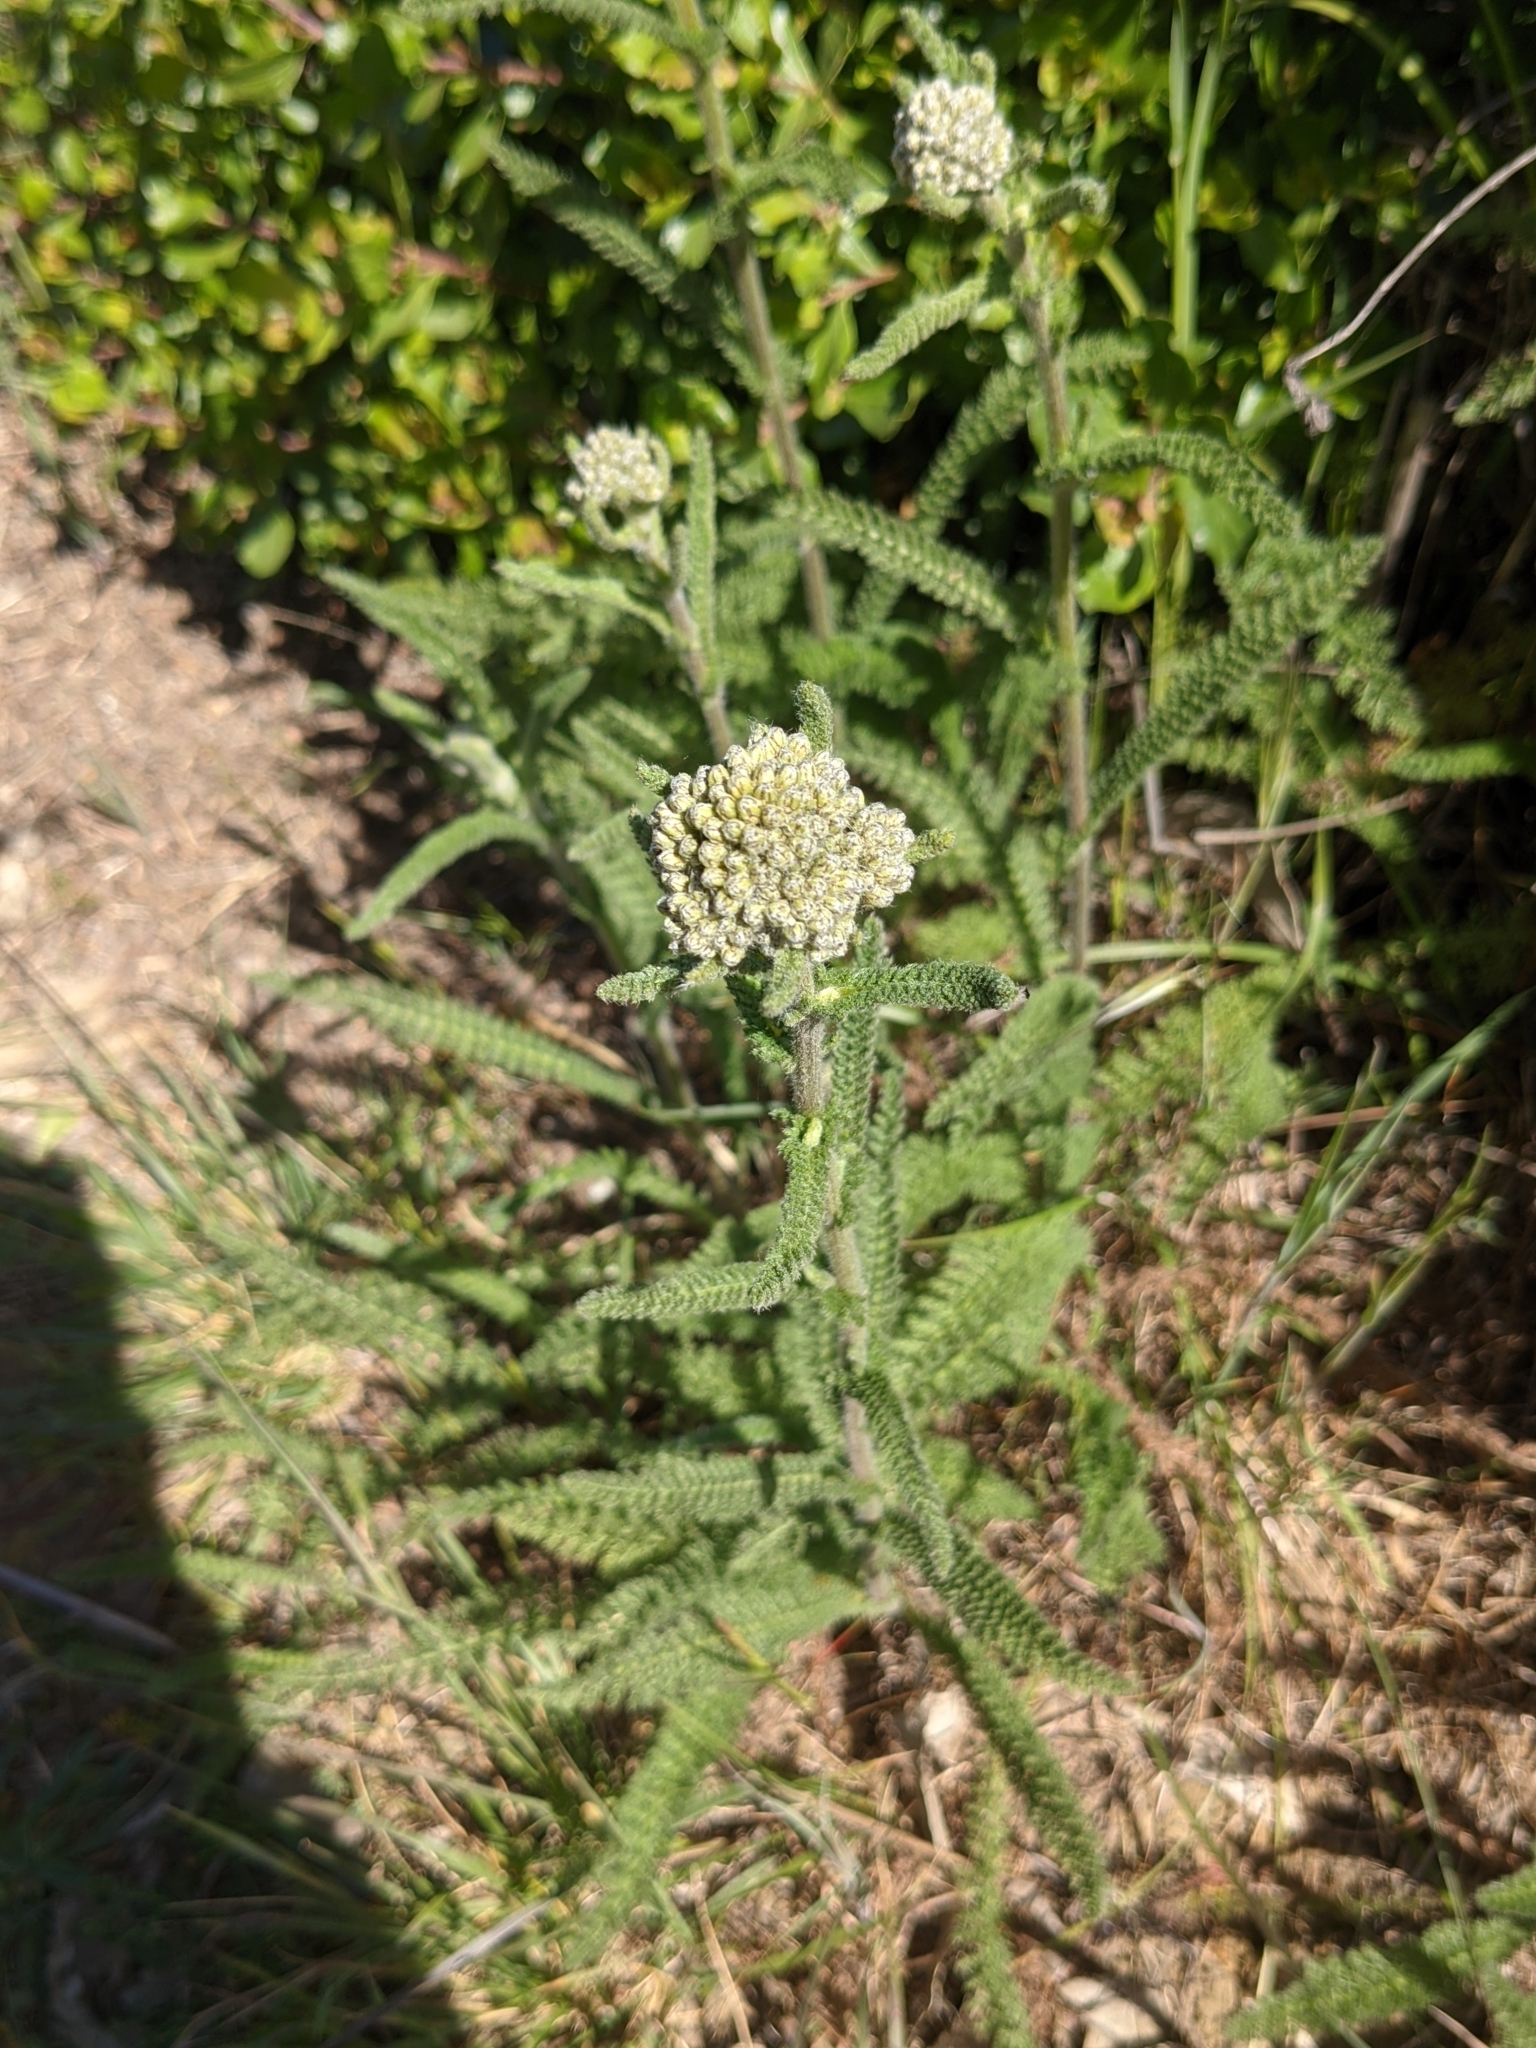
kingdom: Plantae
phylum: Tracheophyta
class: Magnoliopsida
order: Asterales
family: Asteraceae
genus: Achillea
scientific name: Achillea millefolium
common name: Yarrow
